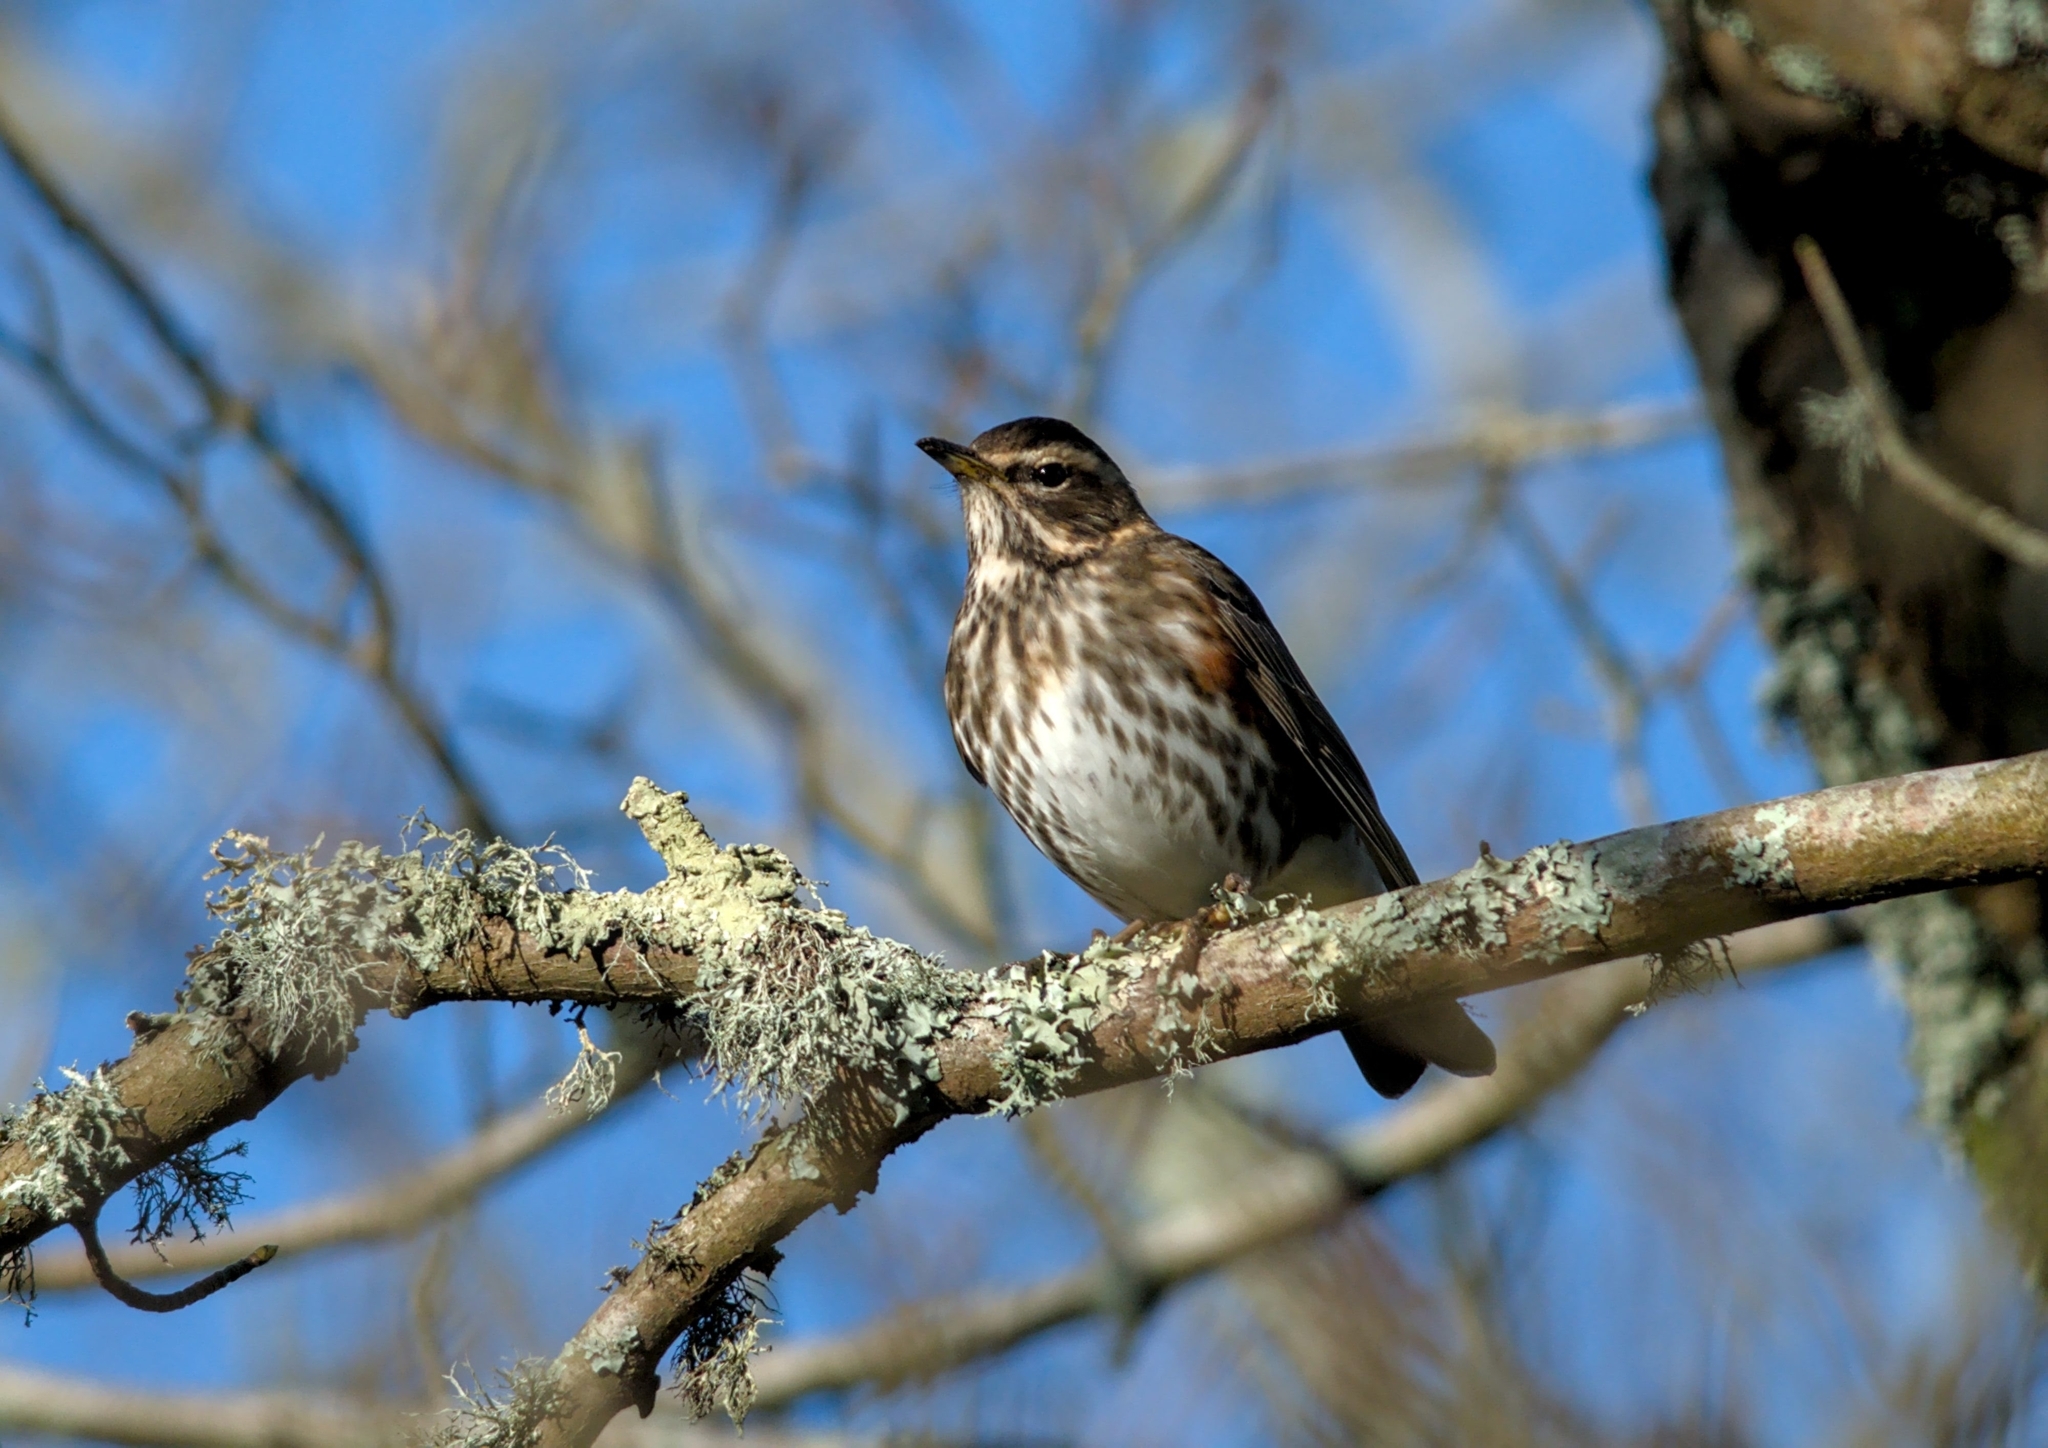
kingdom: Animalia
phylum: Chordata
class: Aves
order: Passeriformes
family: Turdidae
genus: Turdus
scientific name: Turdus iliacus
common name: Redwing
